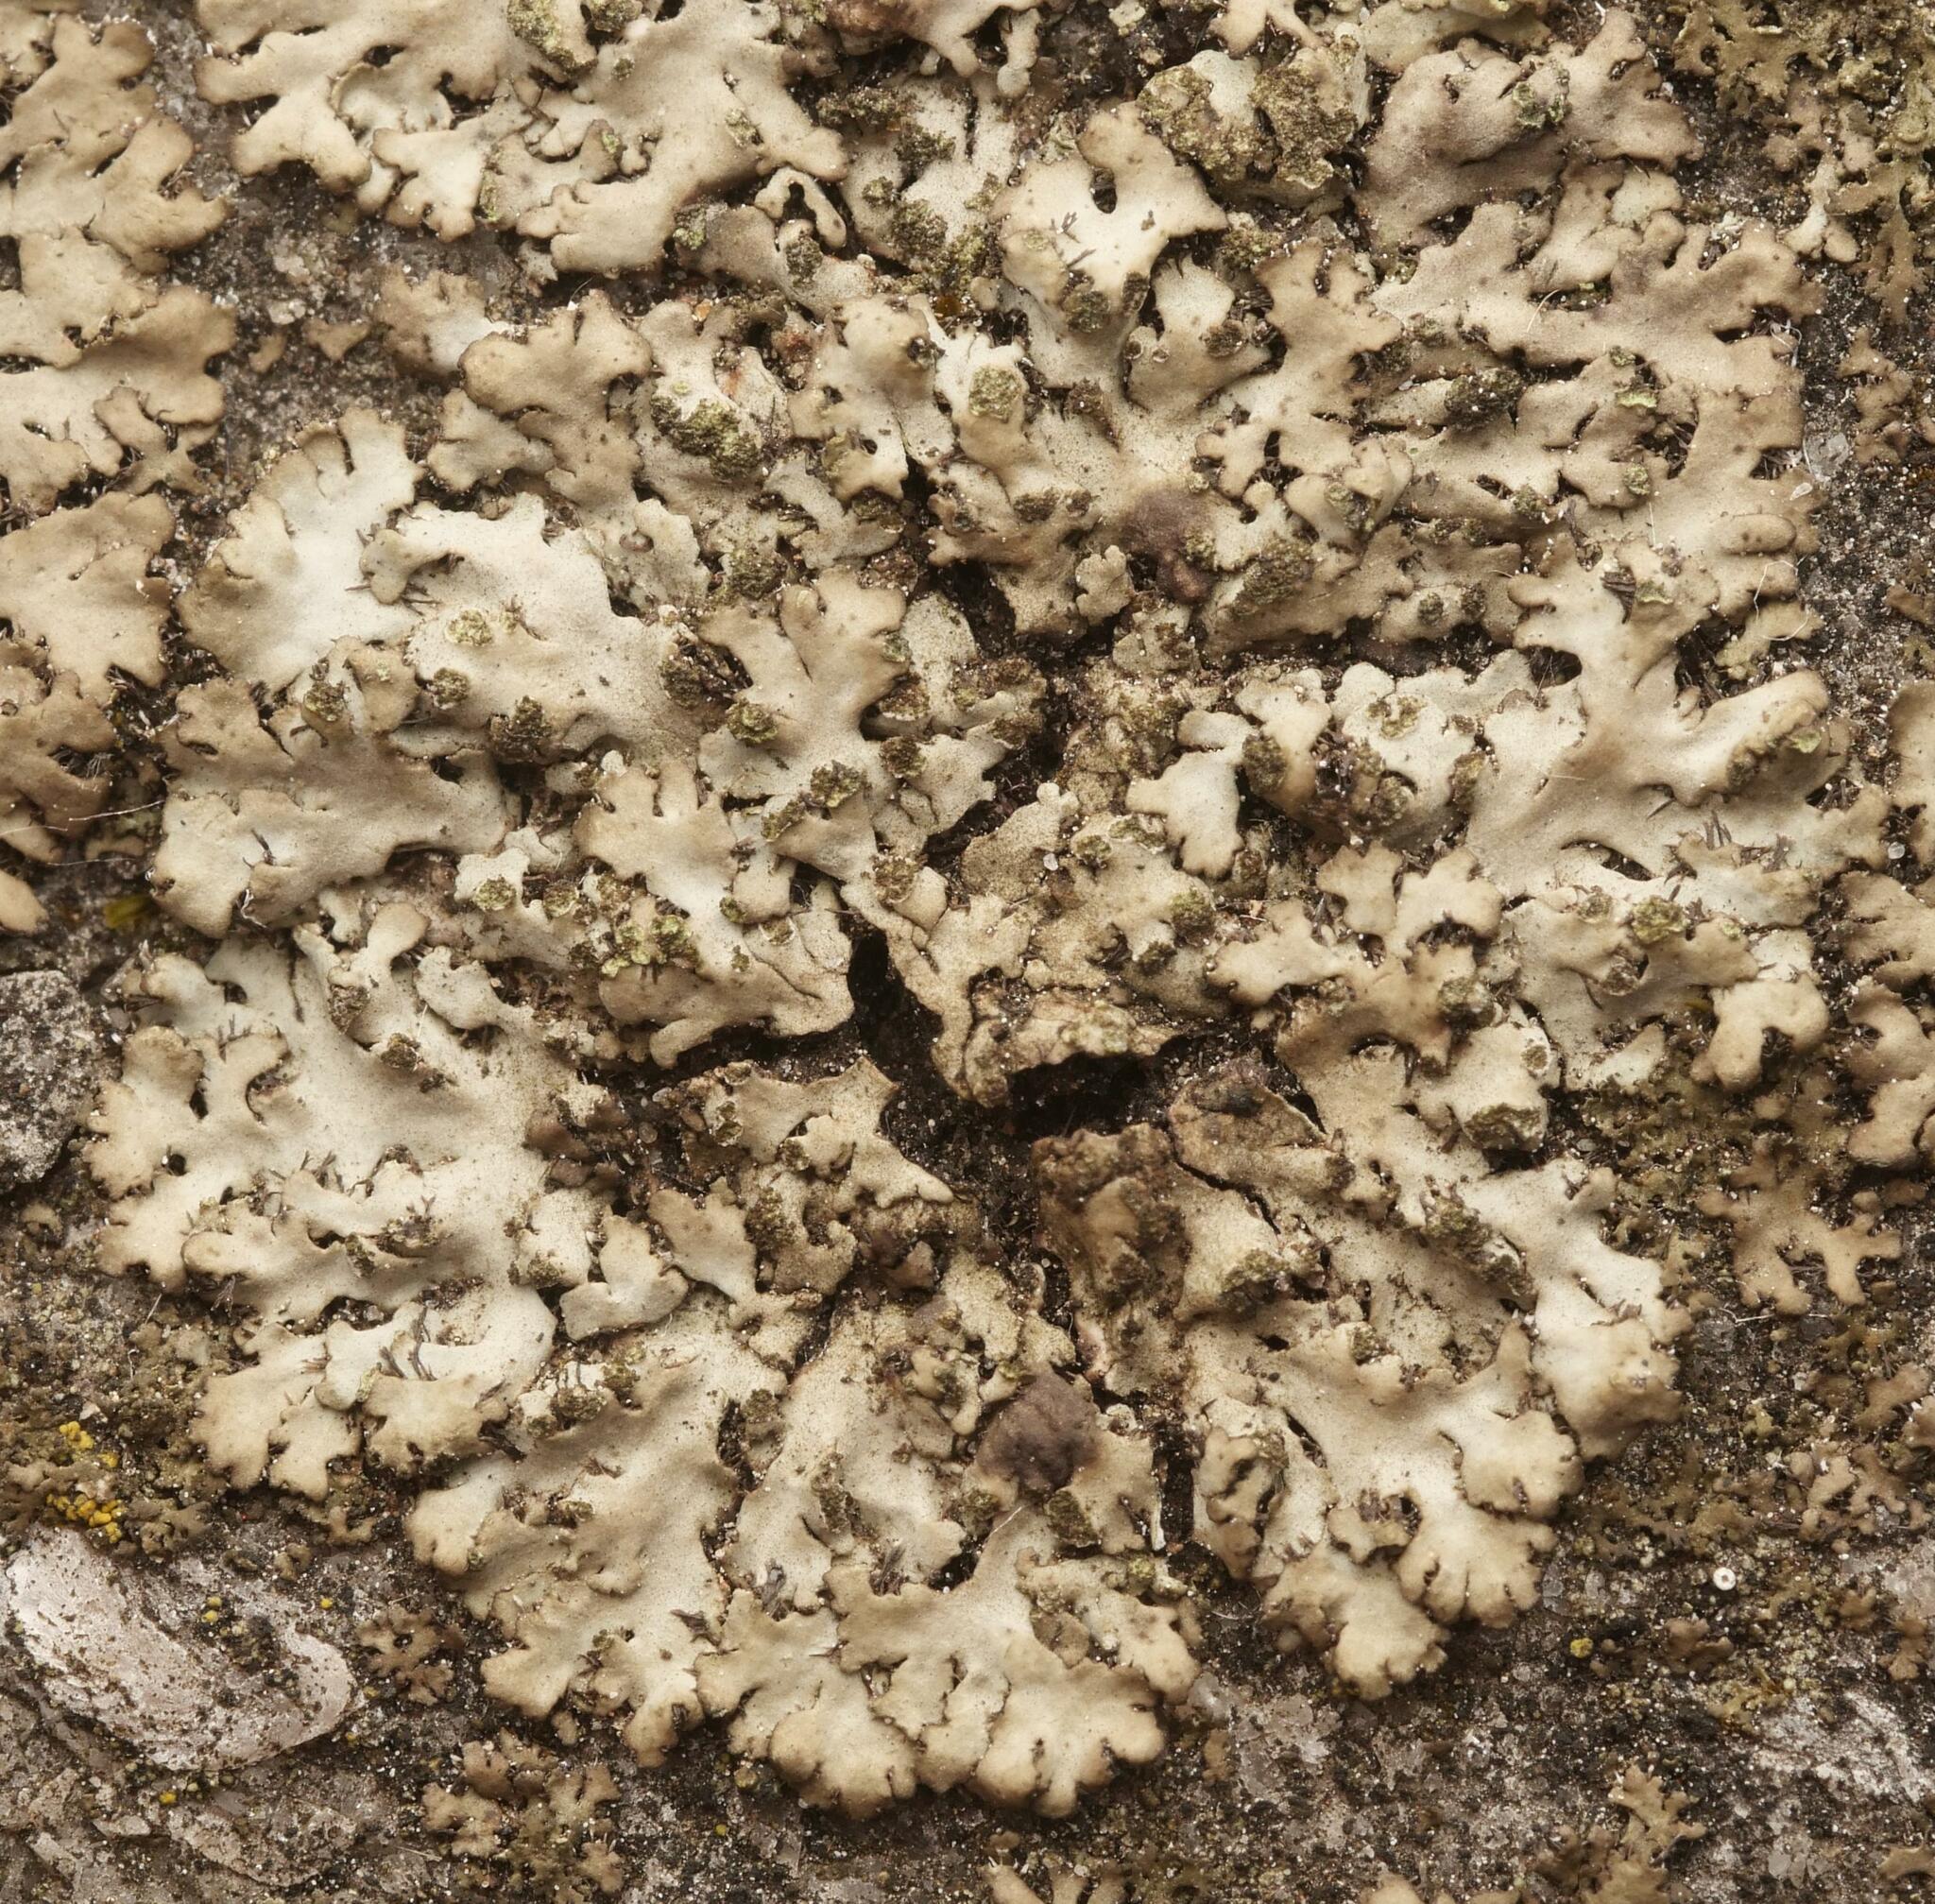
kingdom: Fungi
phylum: Ascomycota
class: Lecanoromycetes
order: Caliciales
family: Physciaceae
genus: Phaeophyscia
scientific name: Phaeophyscia orbicularis
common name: Mealy shadow lichen
